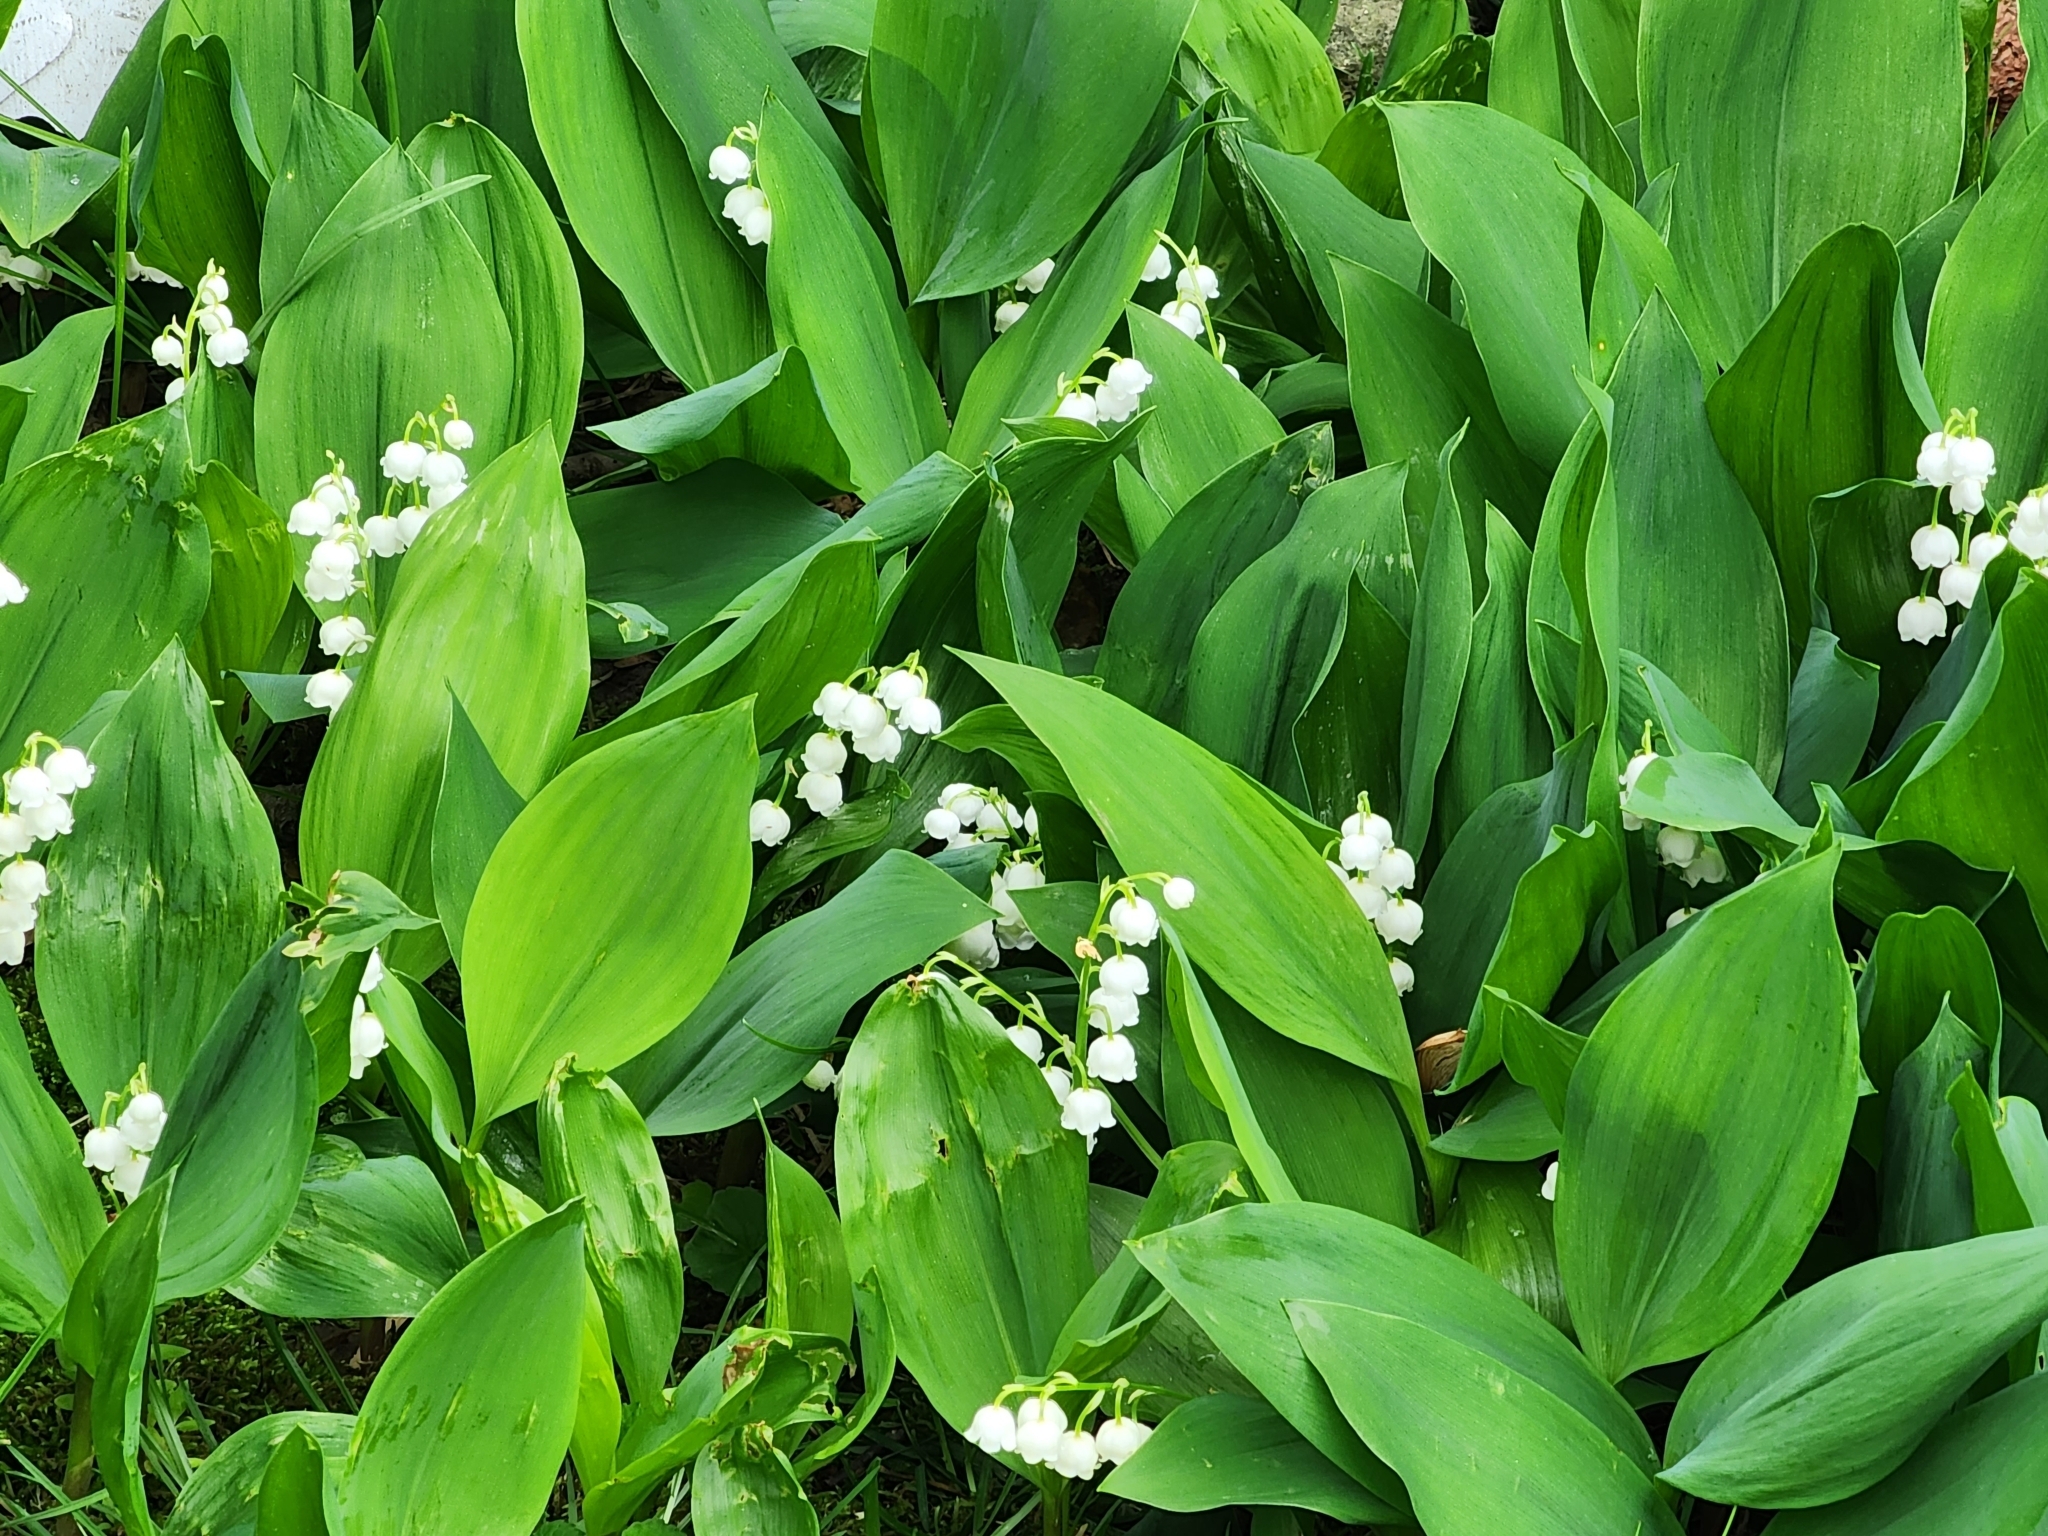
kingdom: Plantae
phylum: Tracheophyta
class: Liliopsida
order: Asparagales
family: Asparagaceae
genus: Convallaria
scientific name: Convallaria majalis
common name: Lily-of-the-valley
